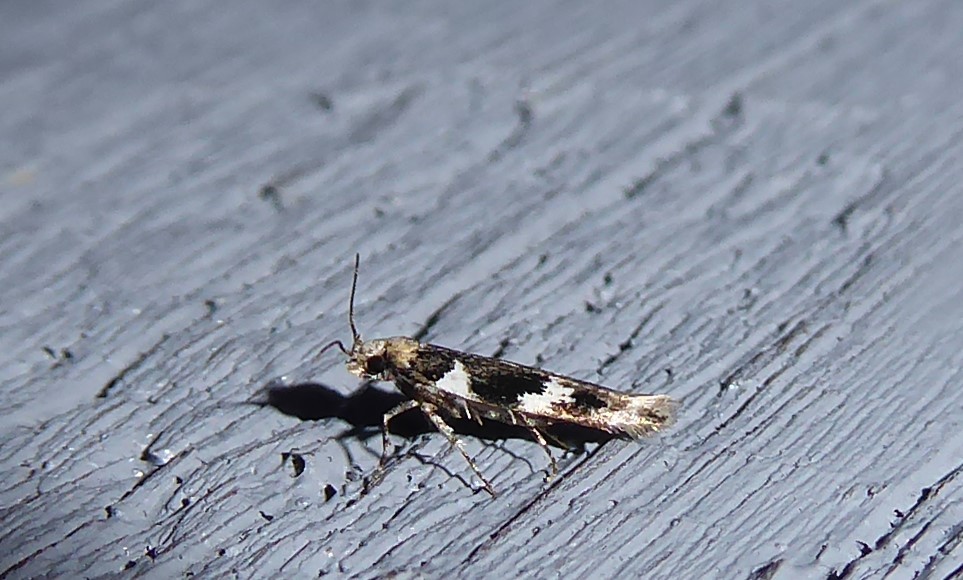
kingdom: Animalia
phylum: Arthropoda
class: Insecta
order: Lepidoptera
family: Cosmopterigidae
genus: Pyroderces
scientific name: Pyroderces deamatella
